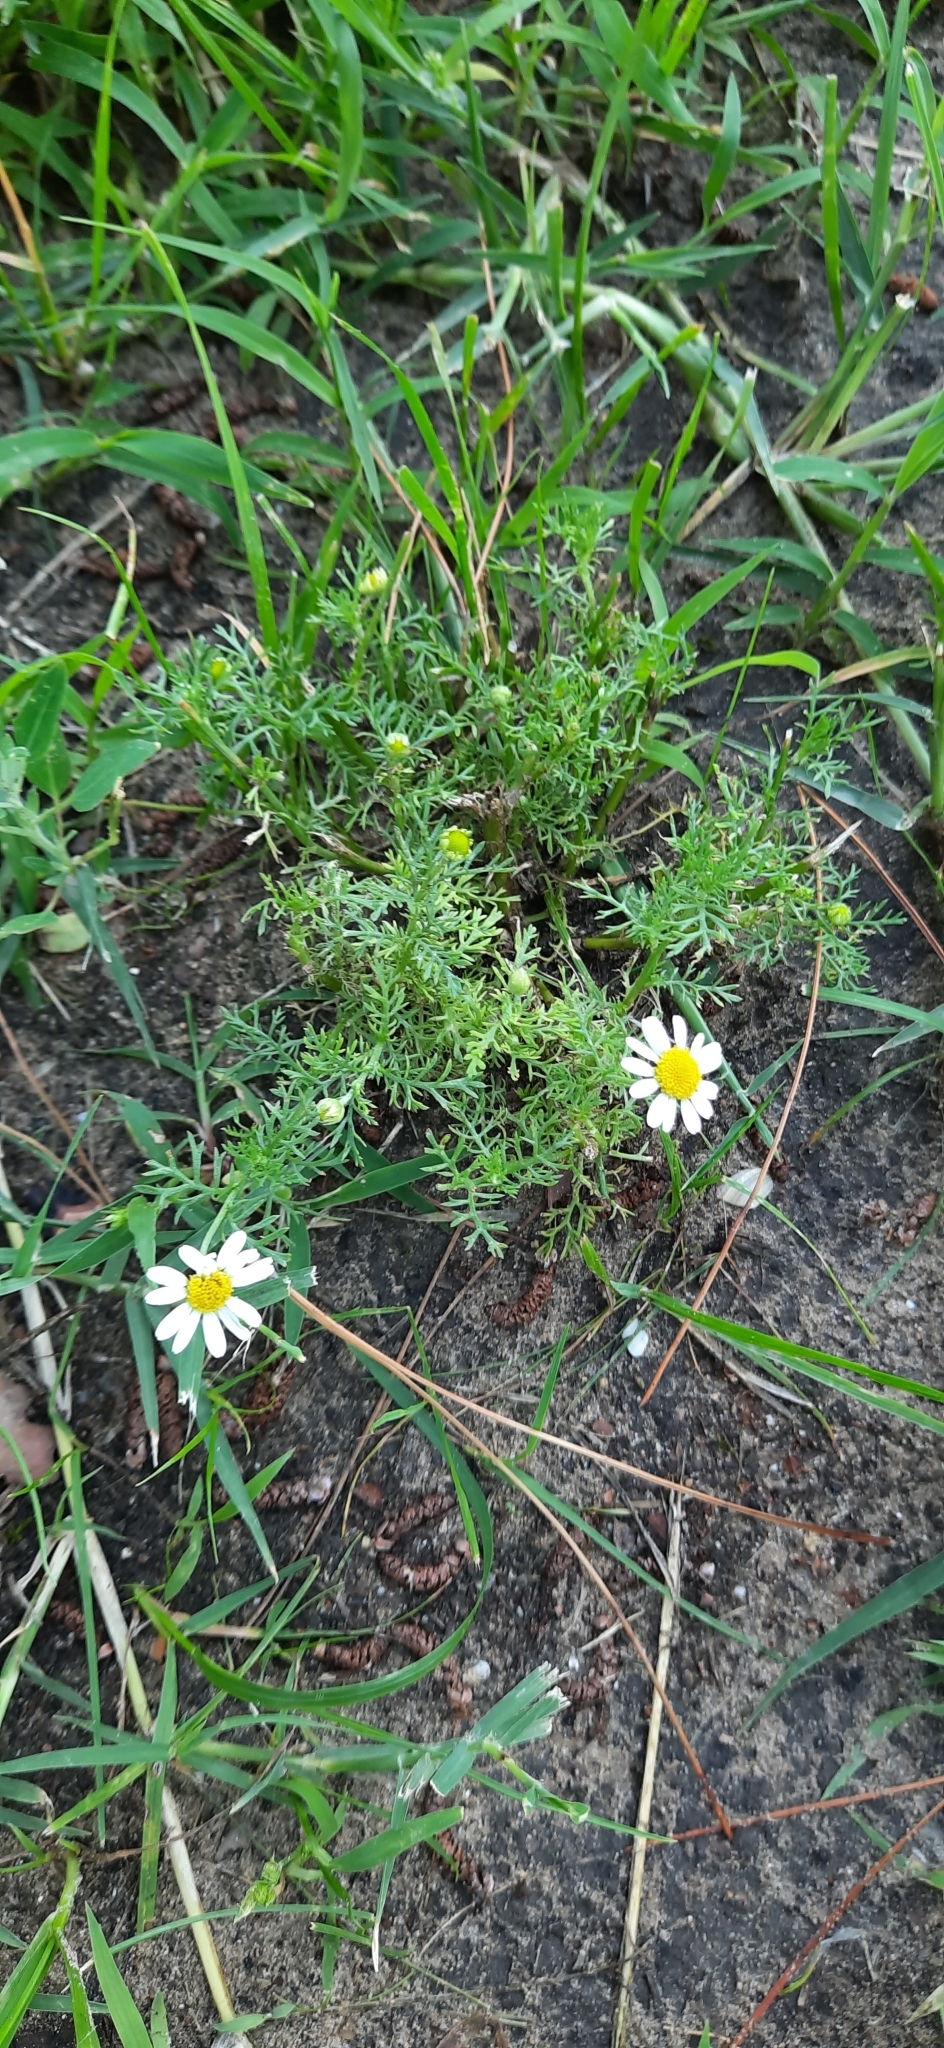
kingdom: Plantae
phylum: Tracheophyta
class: Magnoliopsida
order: Asterales
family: Asteraceae
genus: Tripleurospermum
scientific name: Tripleurospermum inodorum
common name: Scentless mayweed
